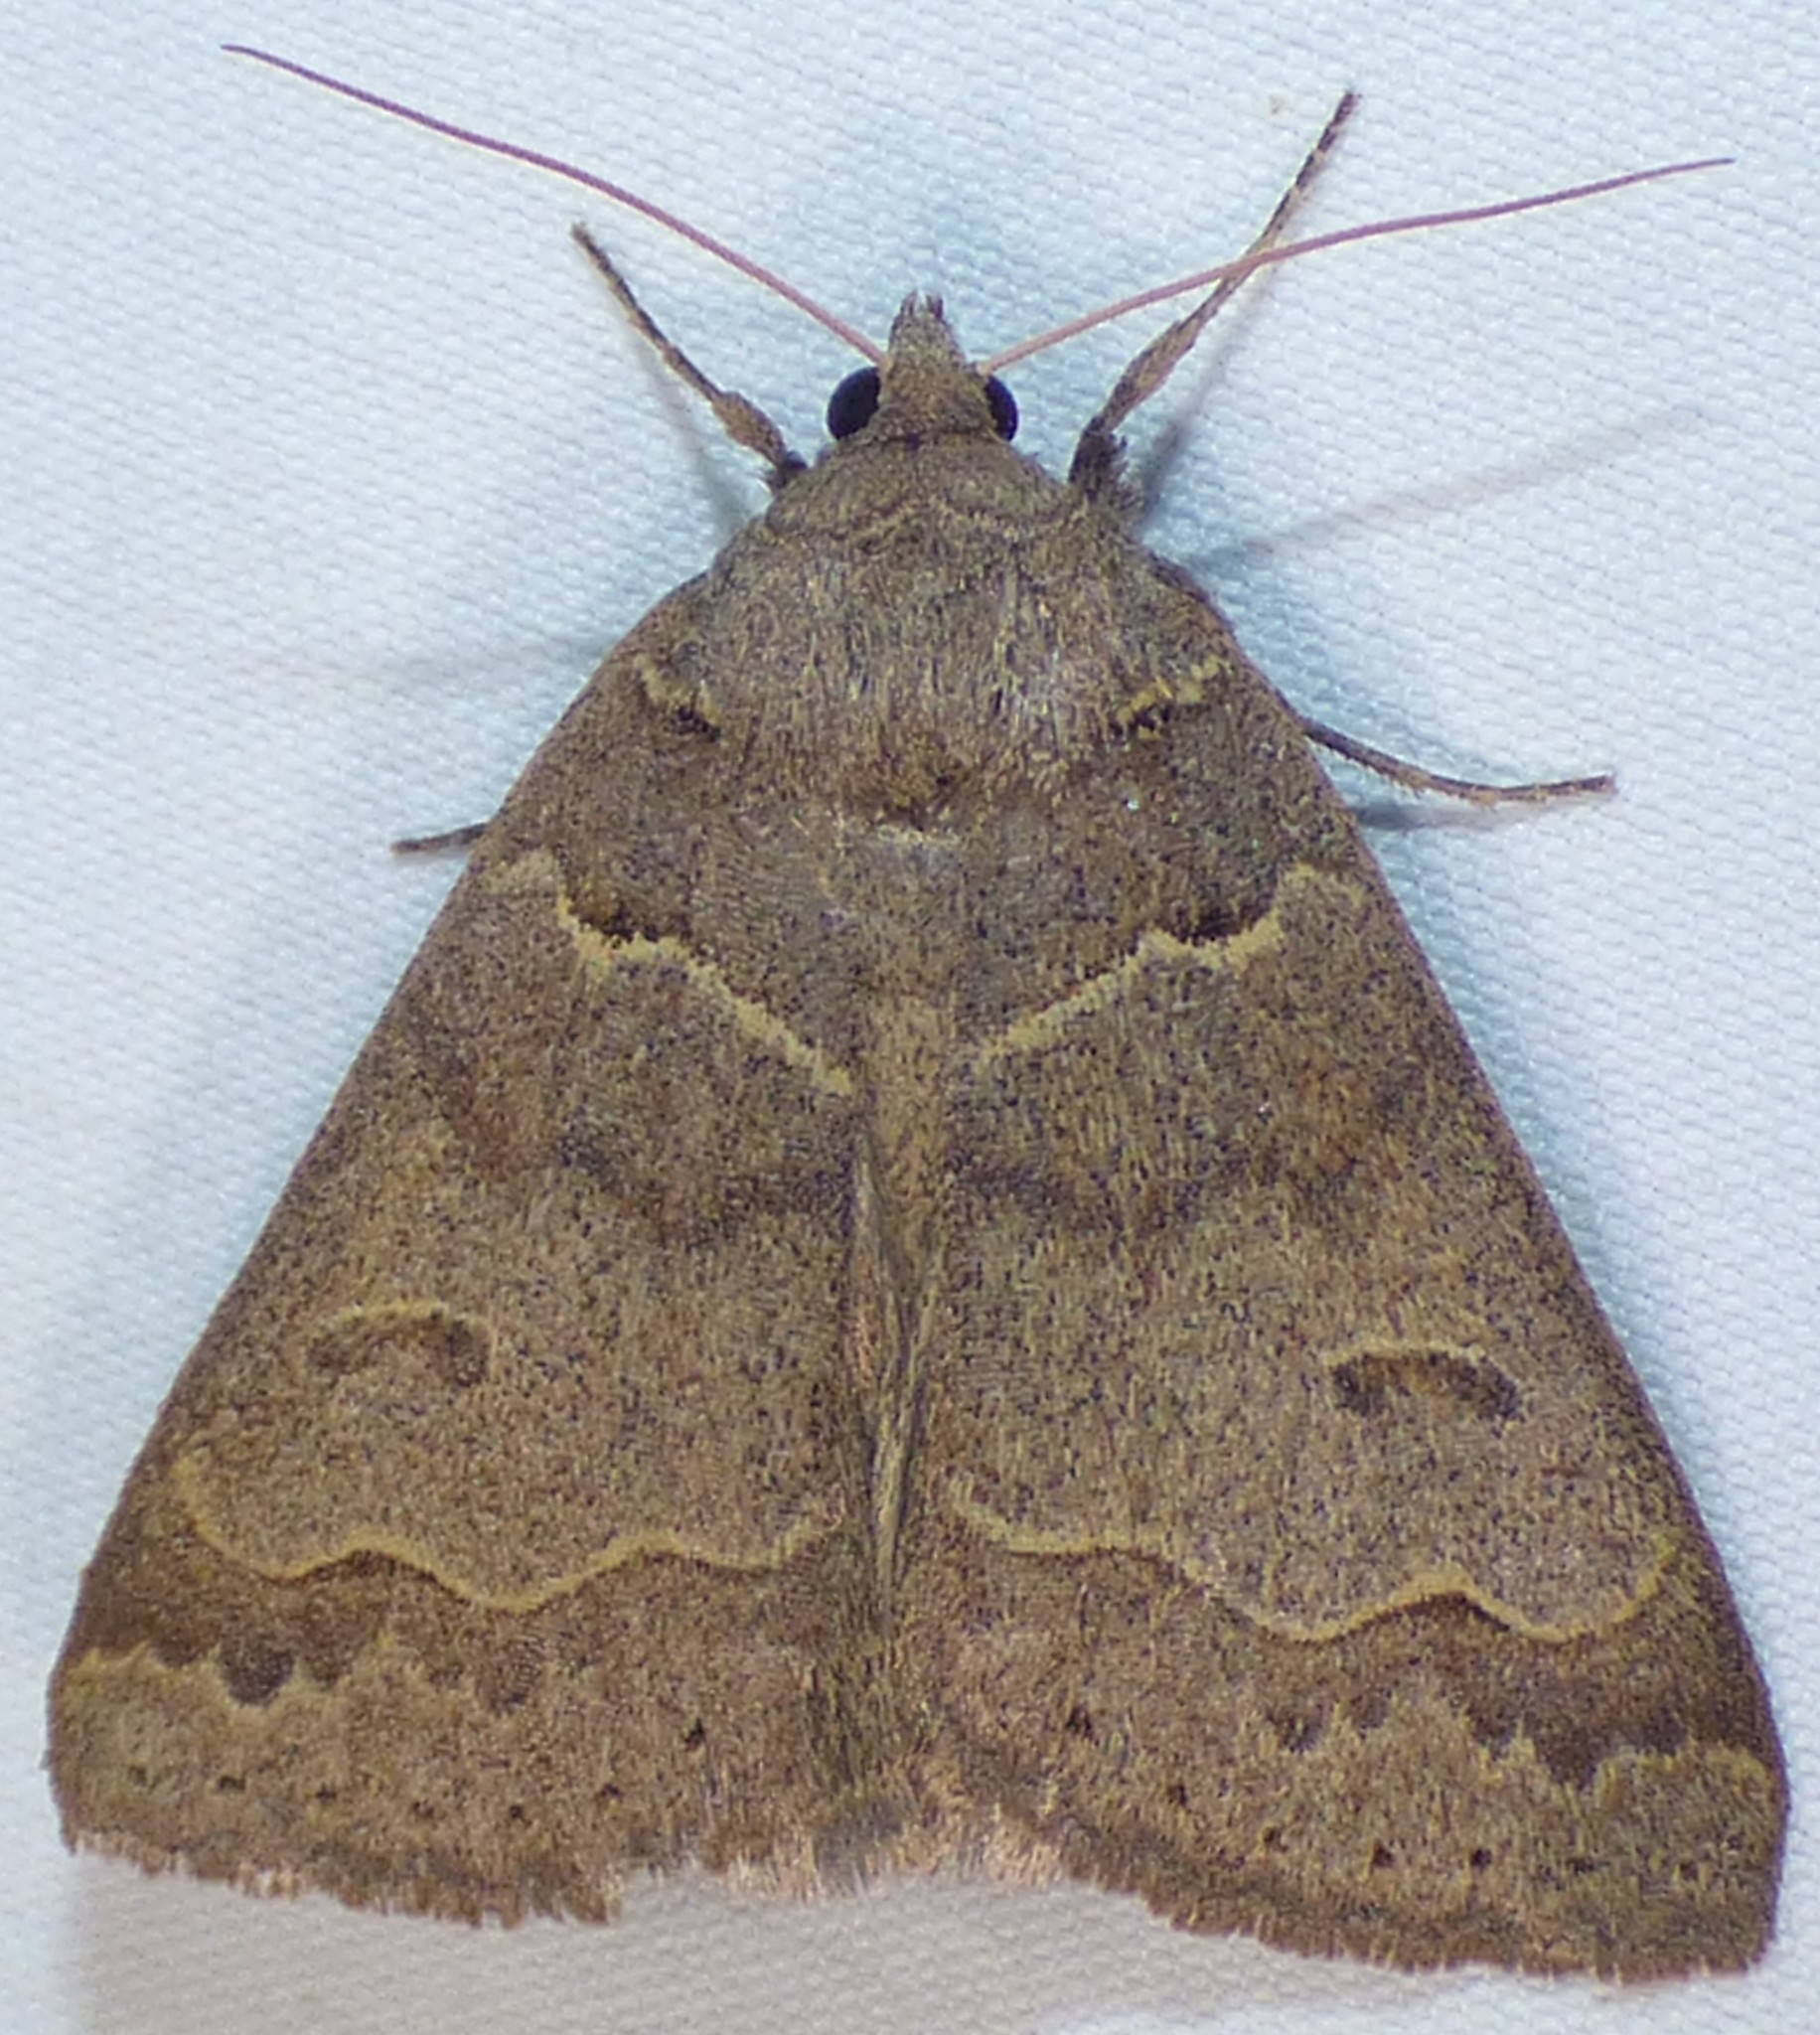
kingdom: Animalia
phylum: Arthropoda
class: Insecta
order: Lepidoptera
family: Erebidae
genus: Phoberia
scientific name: Phoberia atomaris
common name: Common oak moth
